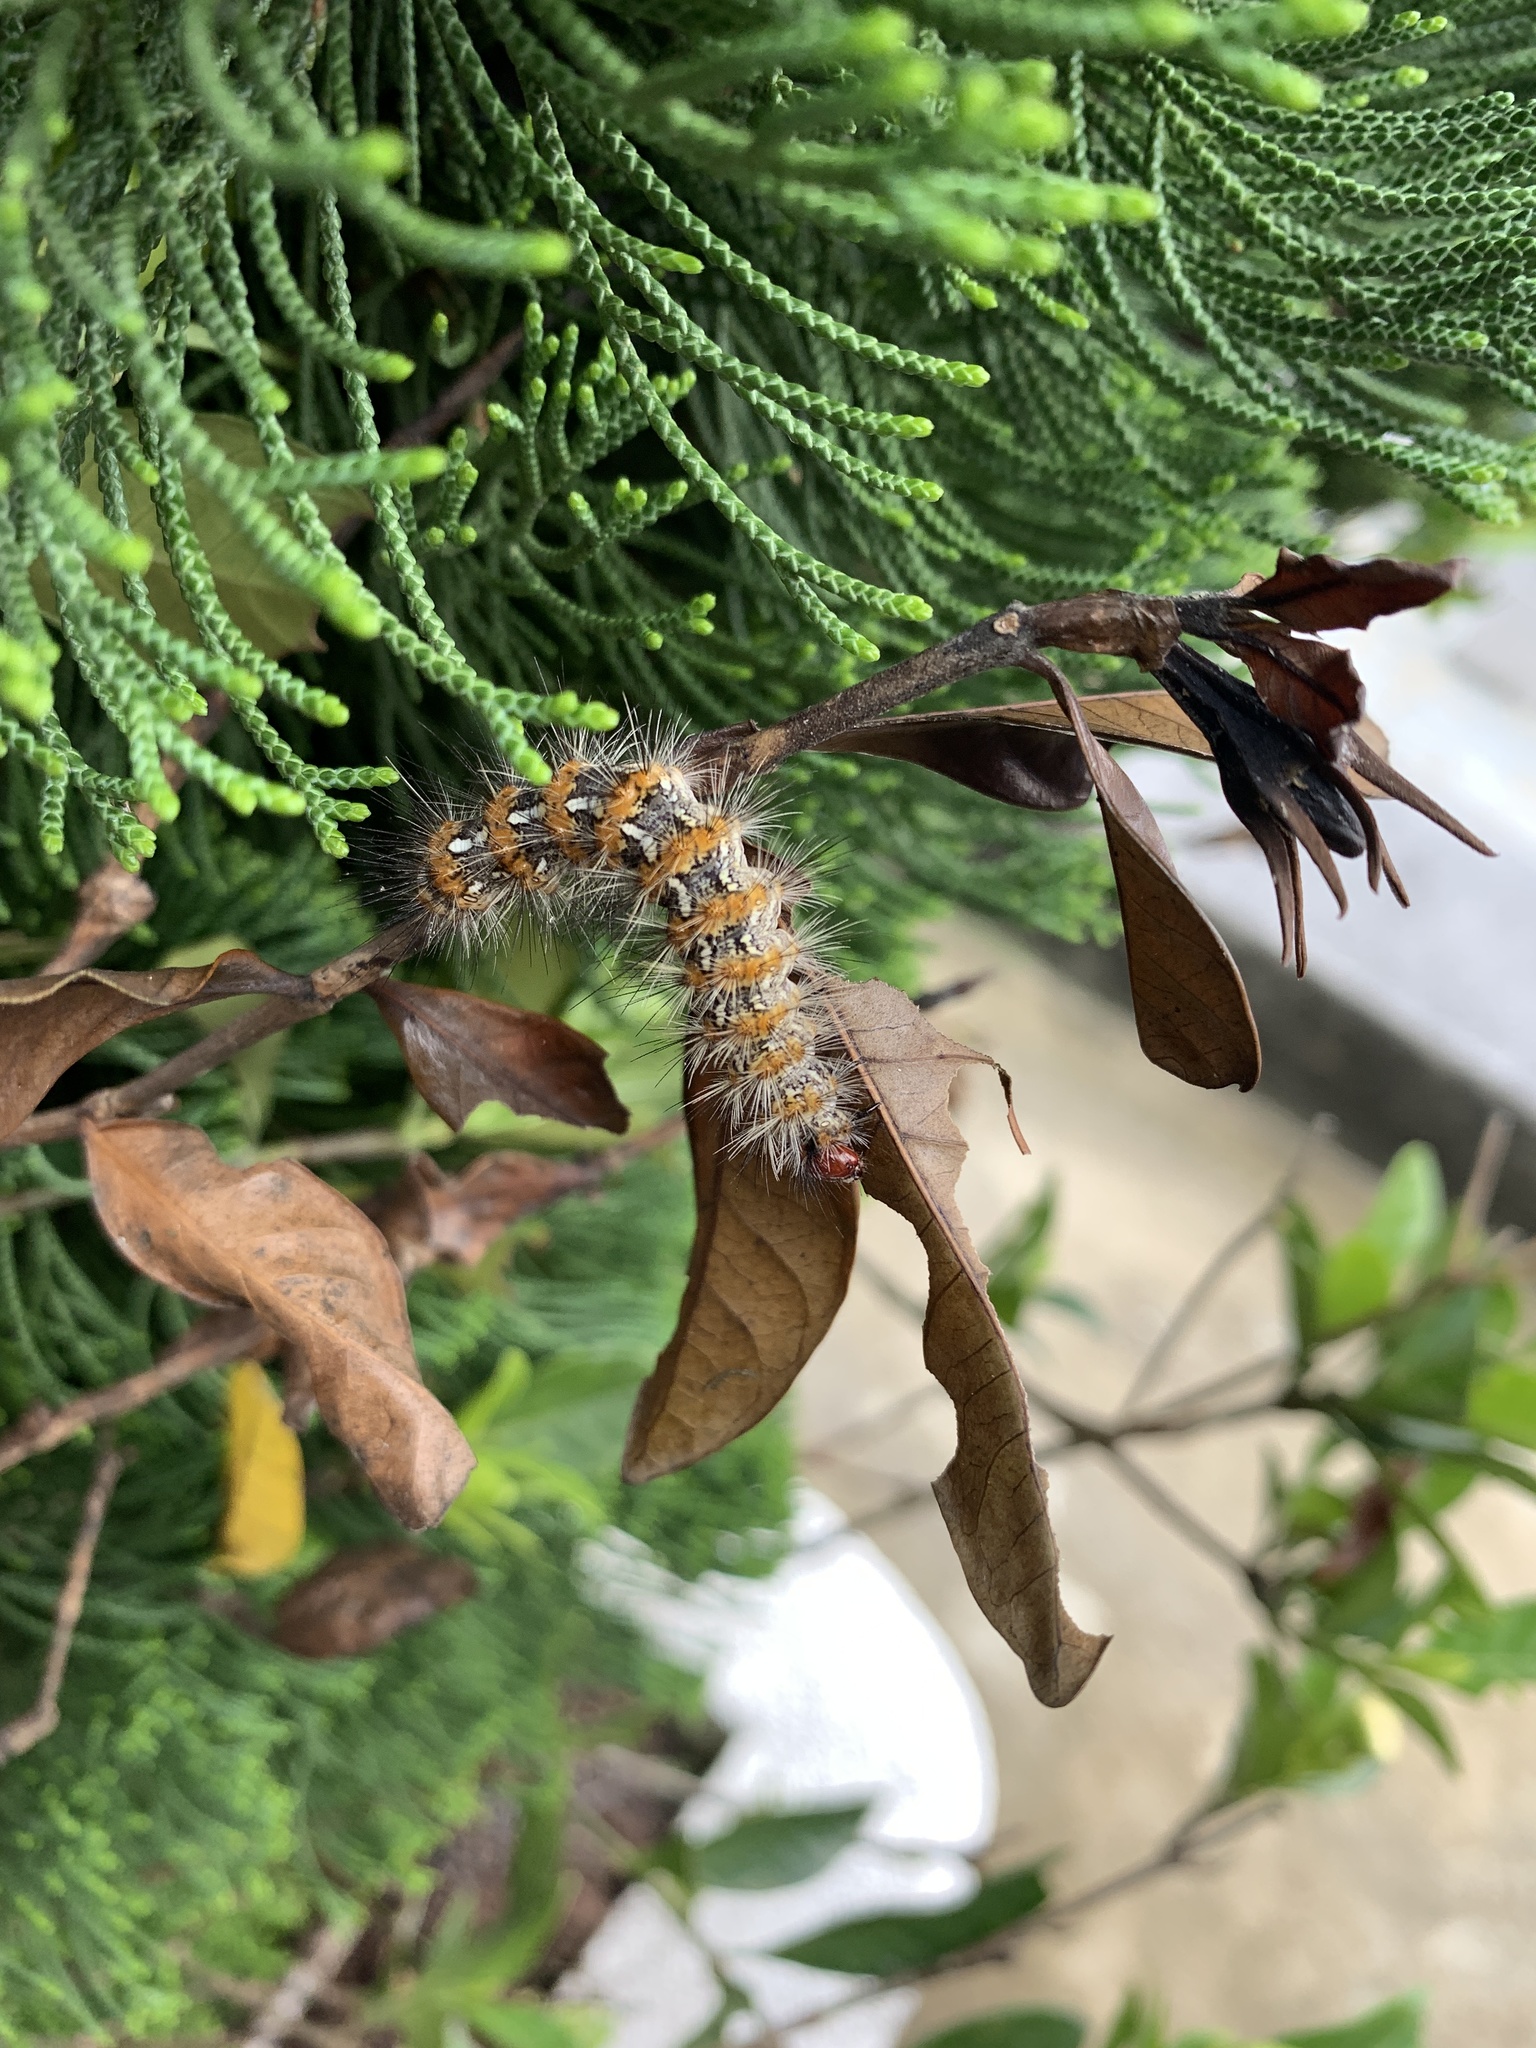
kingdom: Animalia
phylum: Arthropoda
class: Insecta
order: Lepidoptera
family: Erebidae
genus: Lemyra
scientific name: Lemyra imparilis
